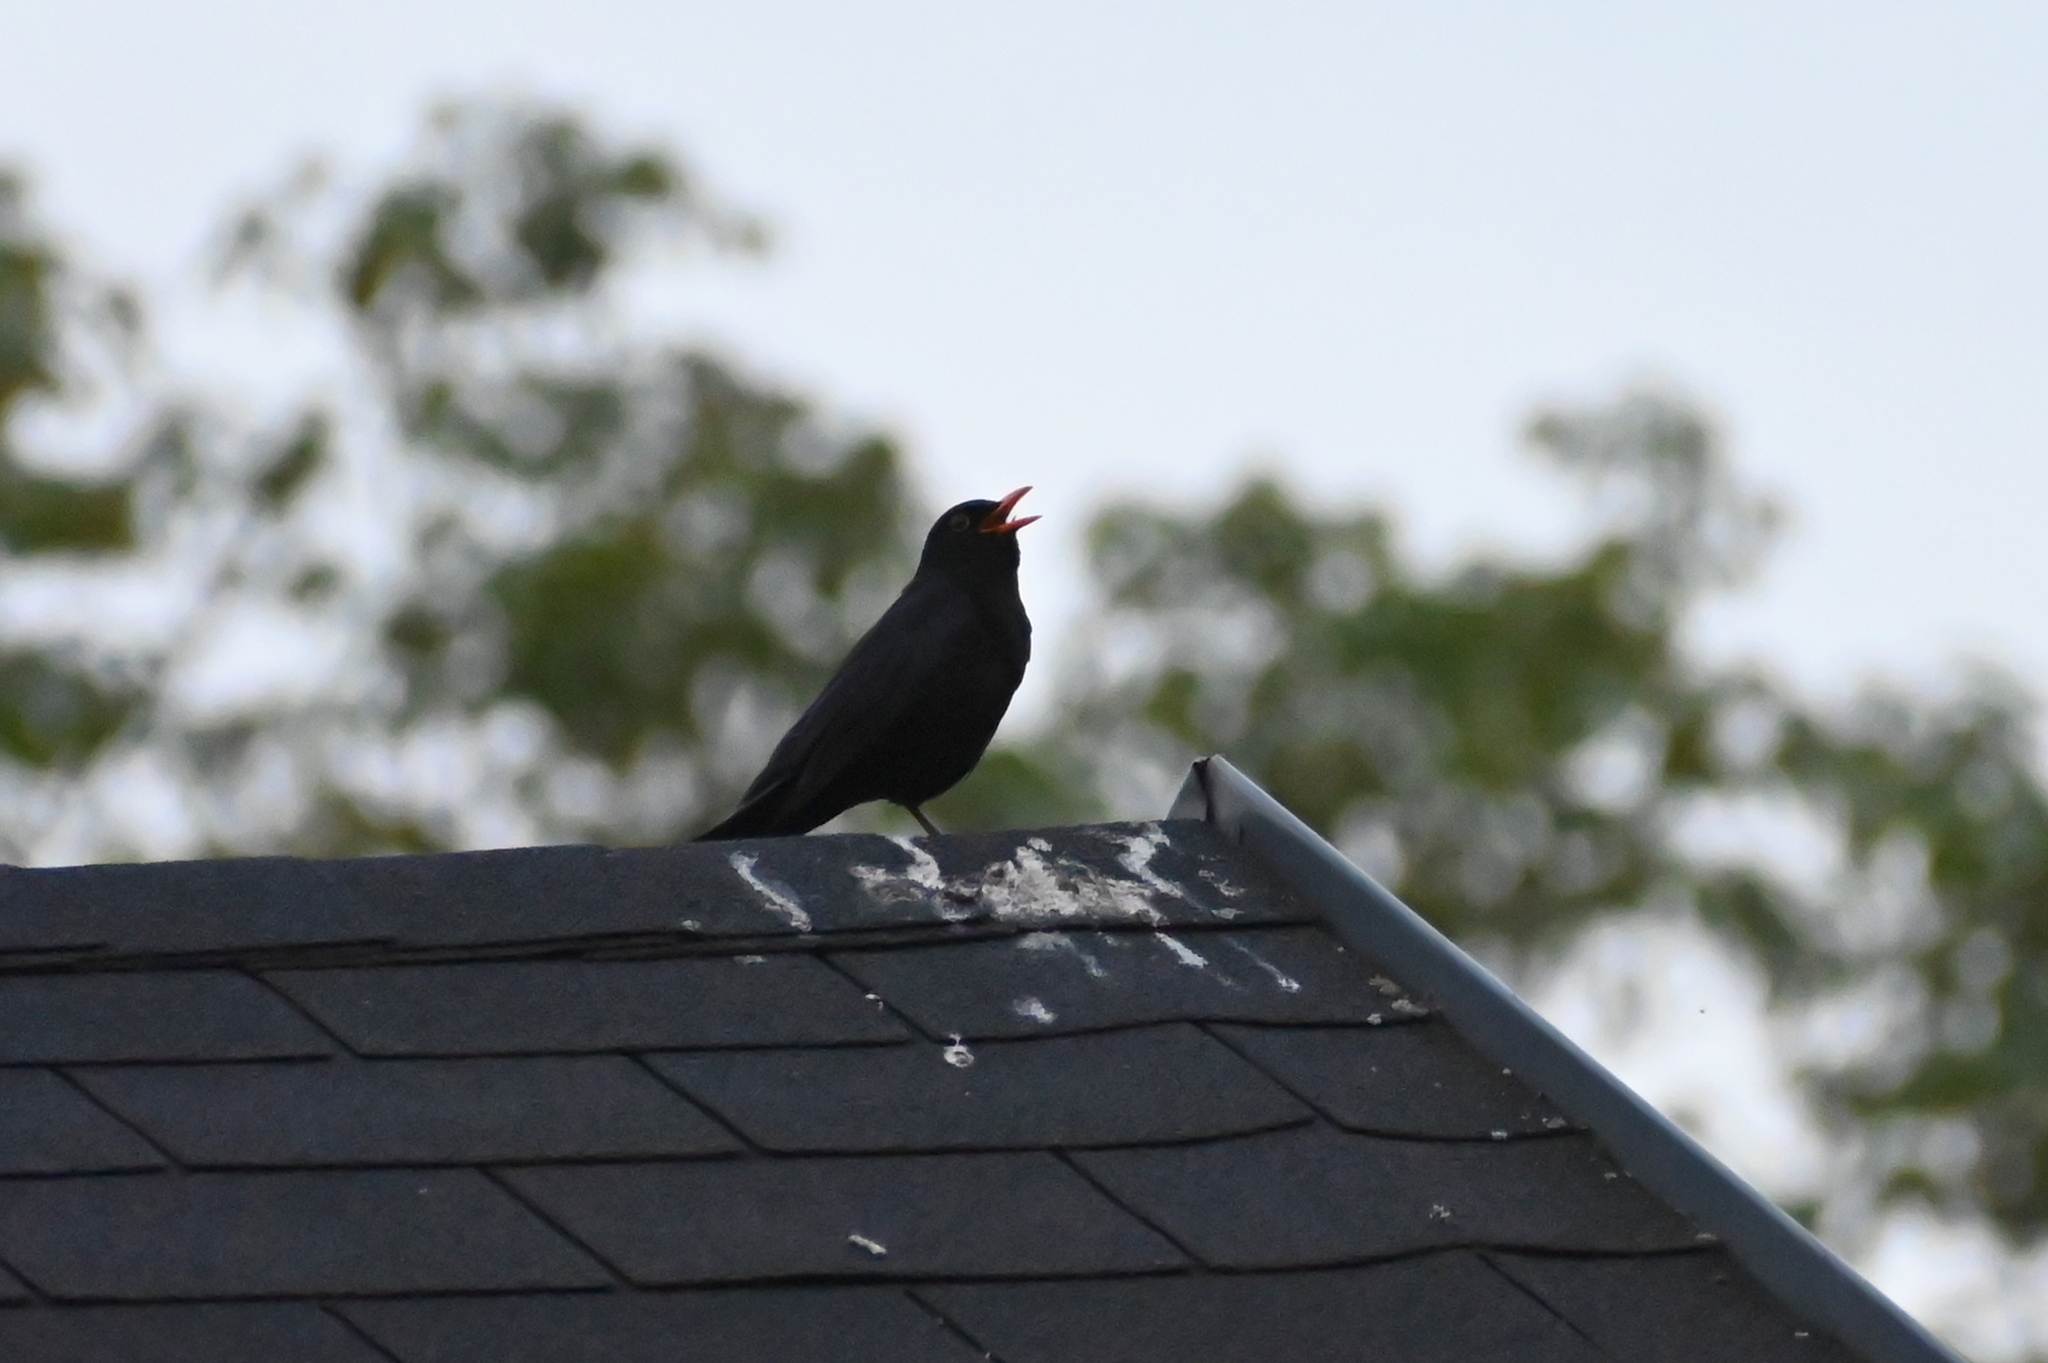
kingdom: Animalia
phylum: Chordata
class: Aves
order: Passeriformes
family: Turdidae
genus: Turdus
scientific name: Turdus merula
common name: Common blackbird
